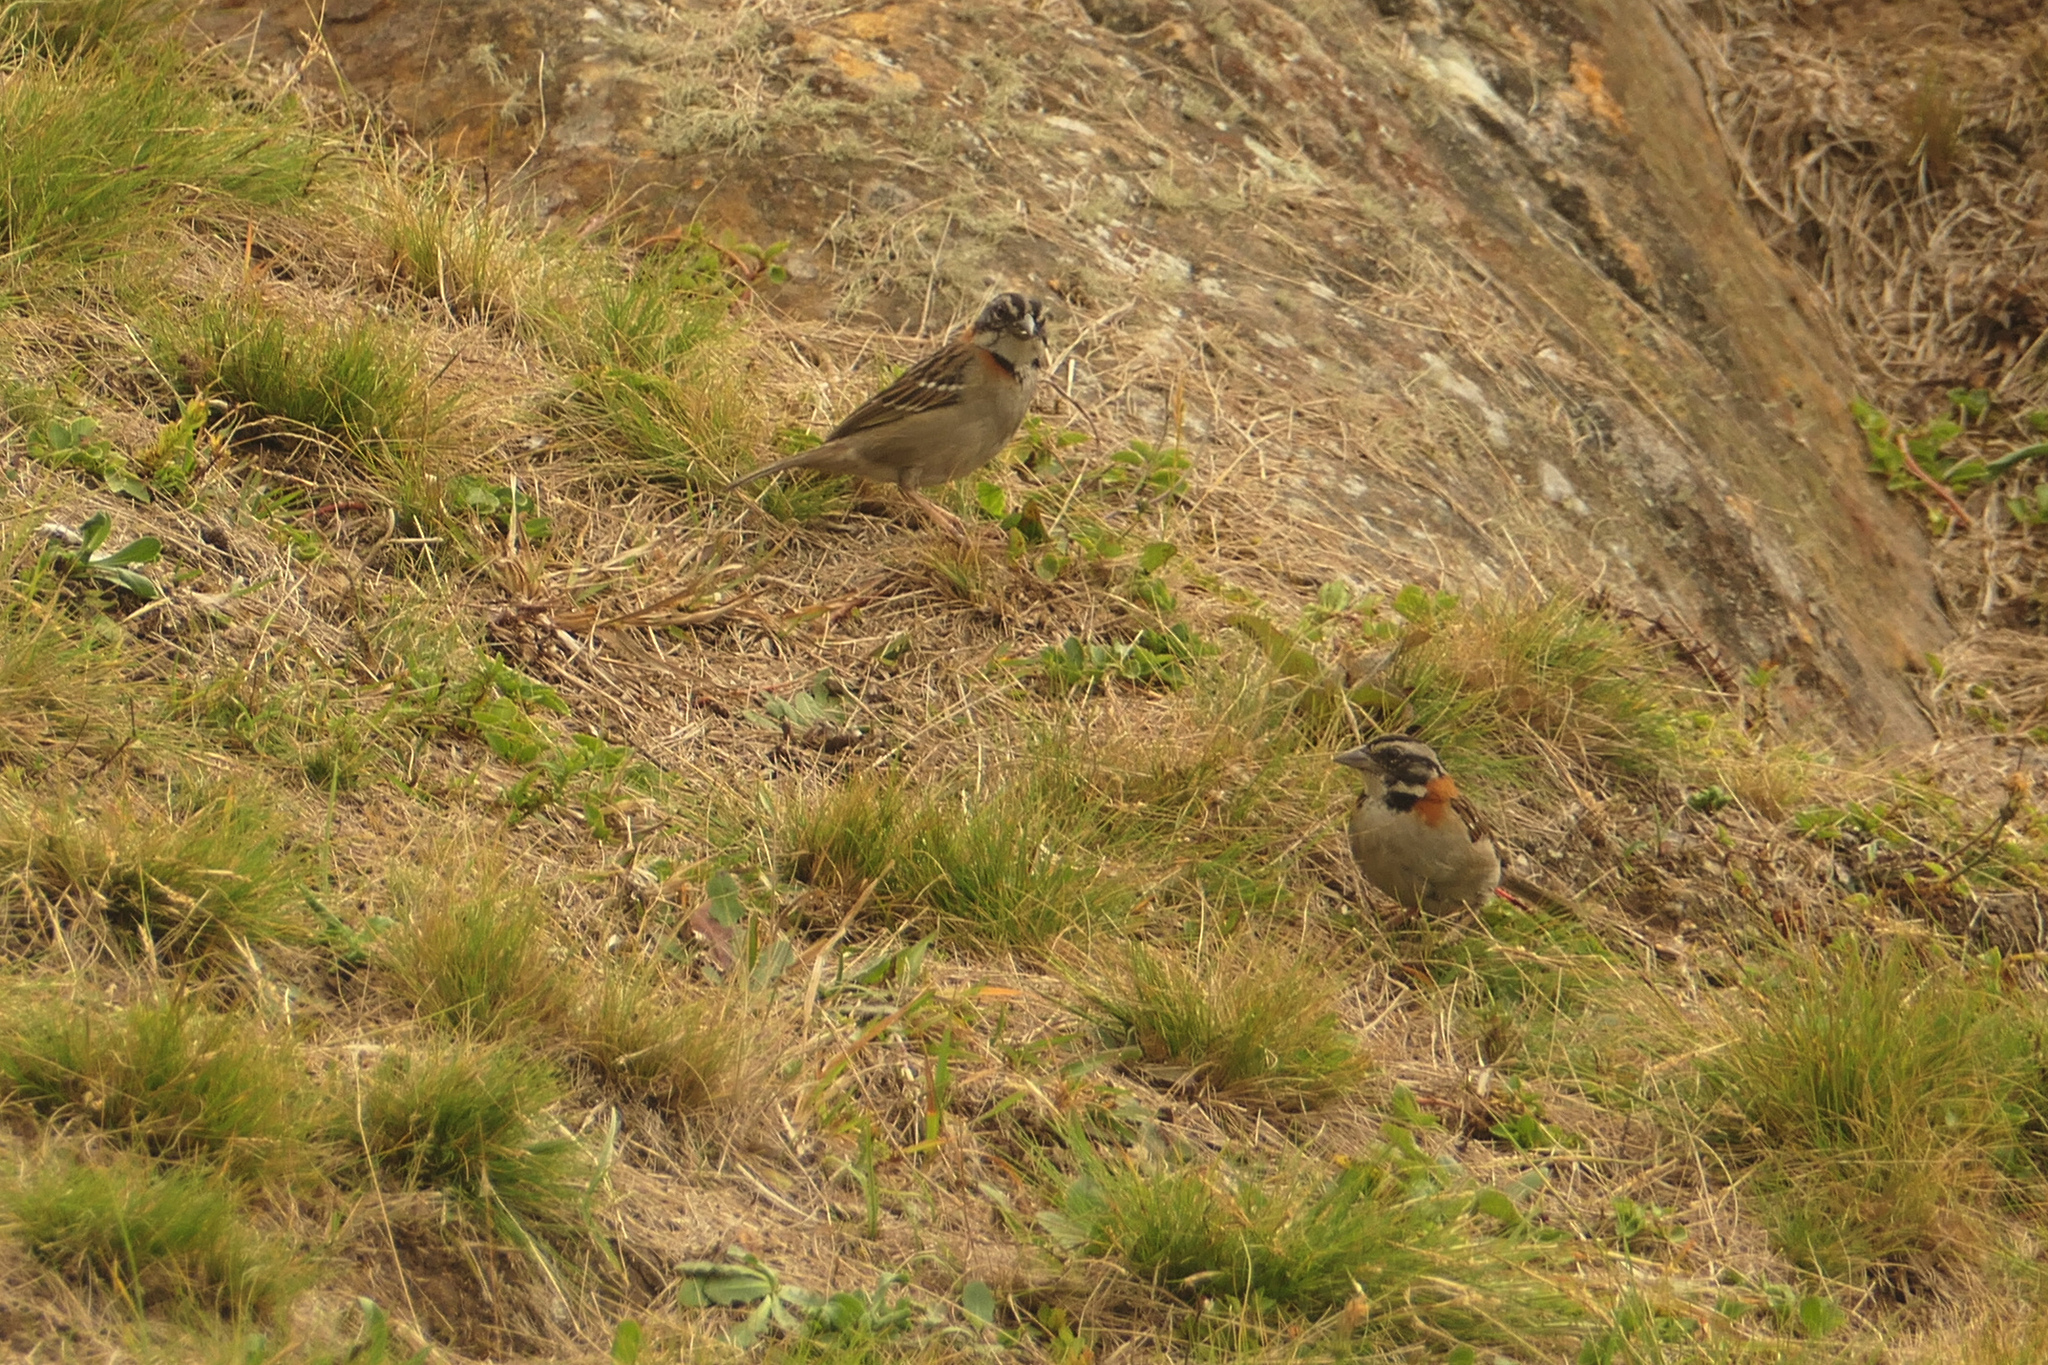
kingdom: Animalia
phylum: Chordata
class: Aves
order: Passeriformes
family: Passerellidae
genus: Zonotrichia
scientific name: Zonotrichia capensis
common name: Rufous-collared sparrow
